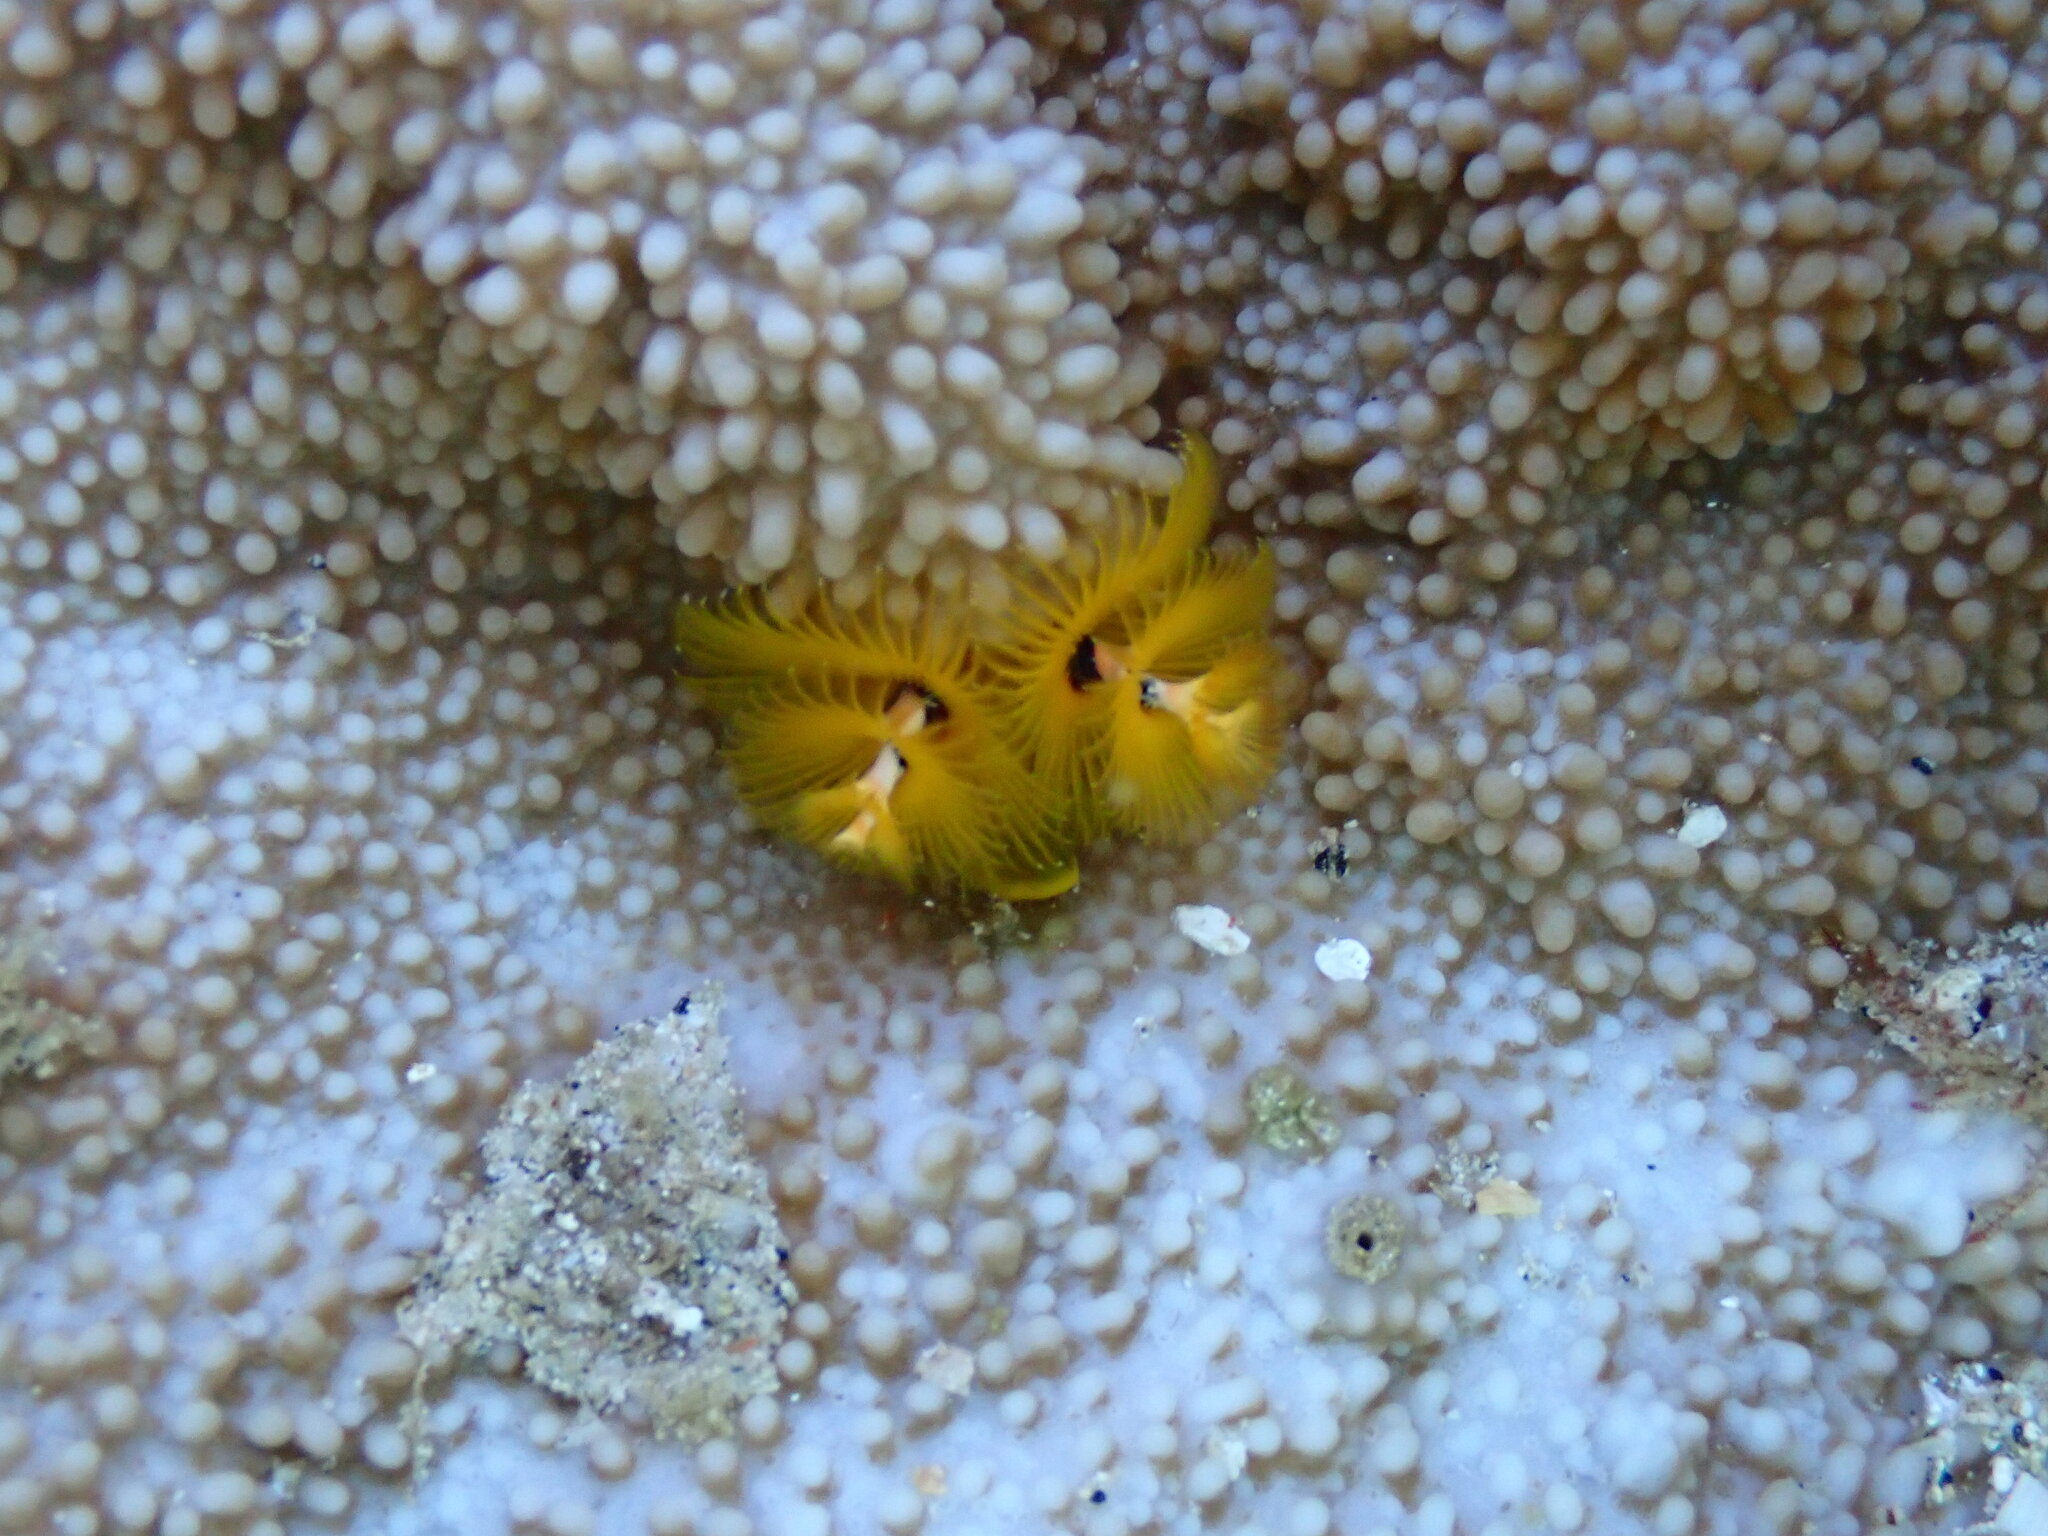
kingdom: Animalia
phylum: Annelida
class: Polychaeta
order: Sabellida
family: Serpulidae
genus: Spirobranchus
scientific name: Spirobranchus
